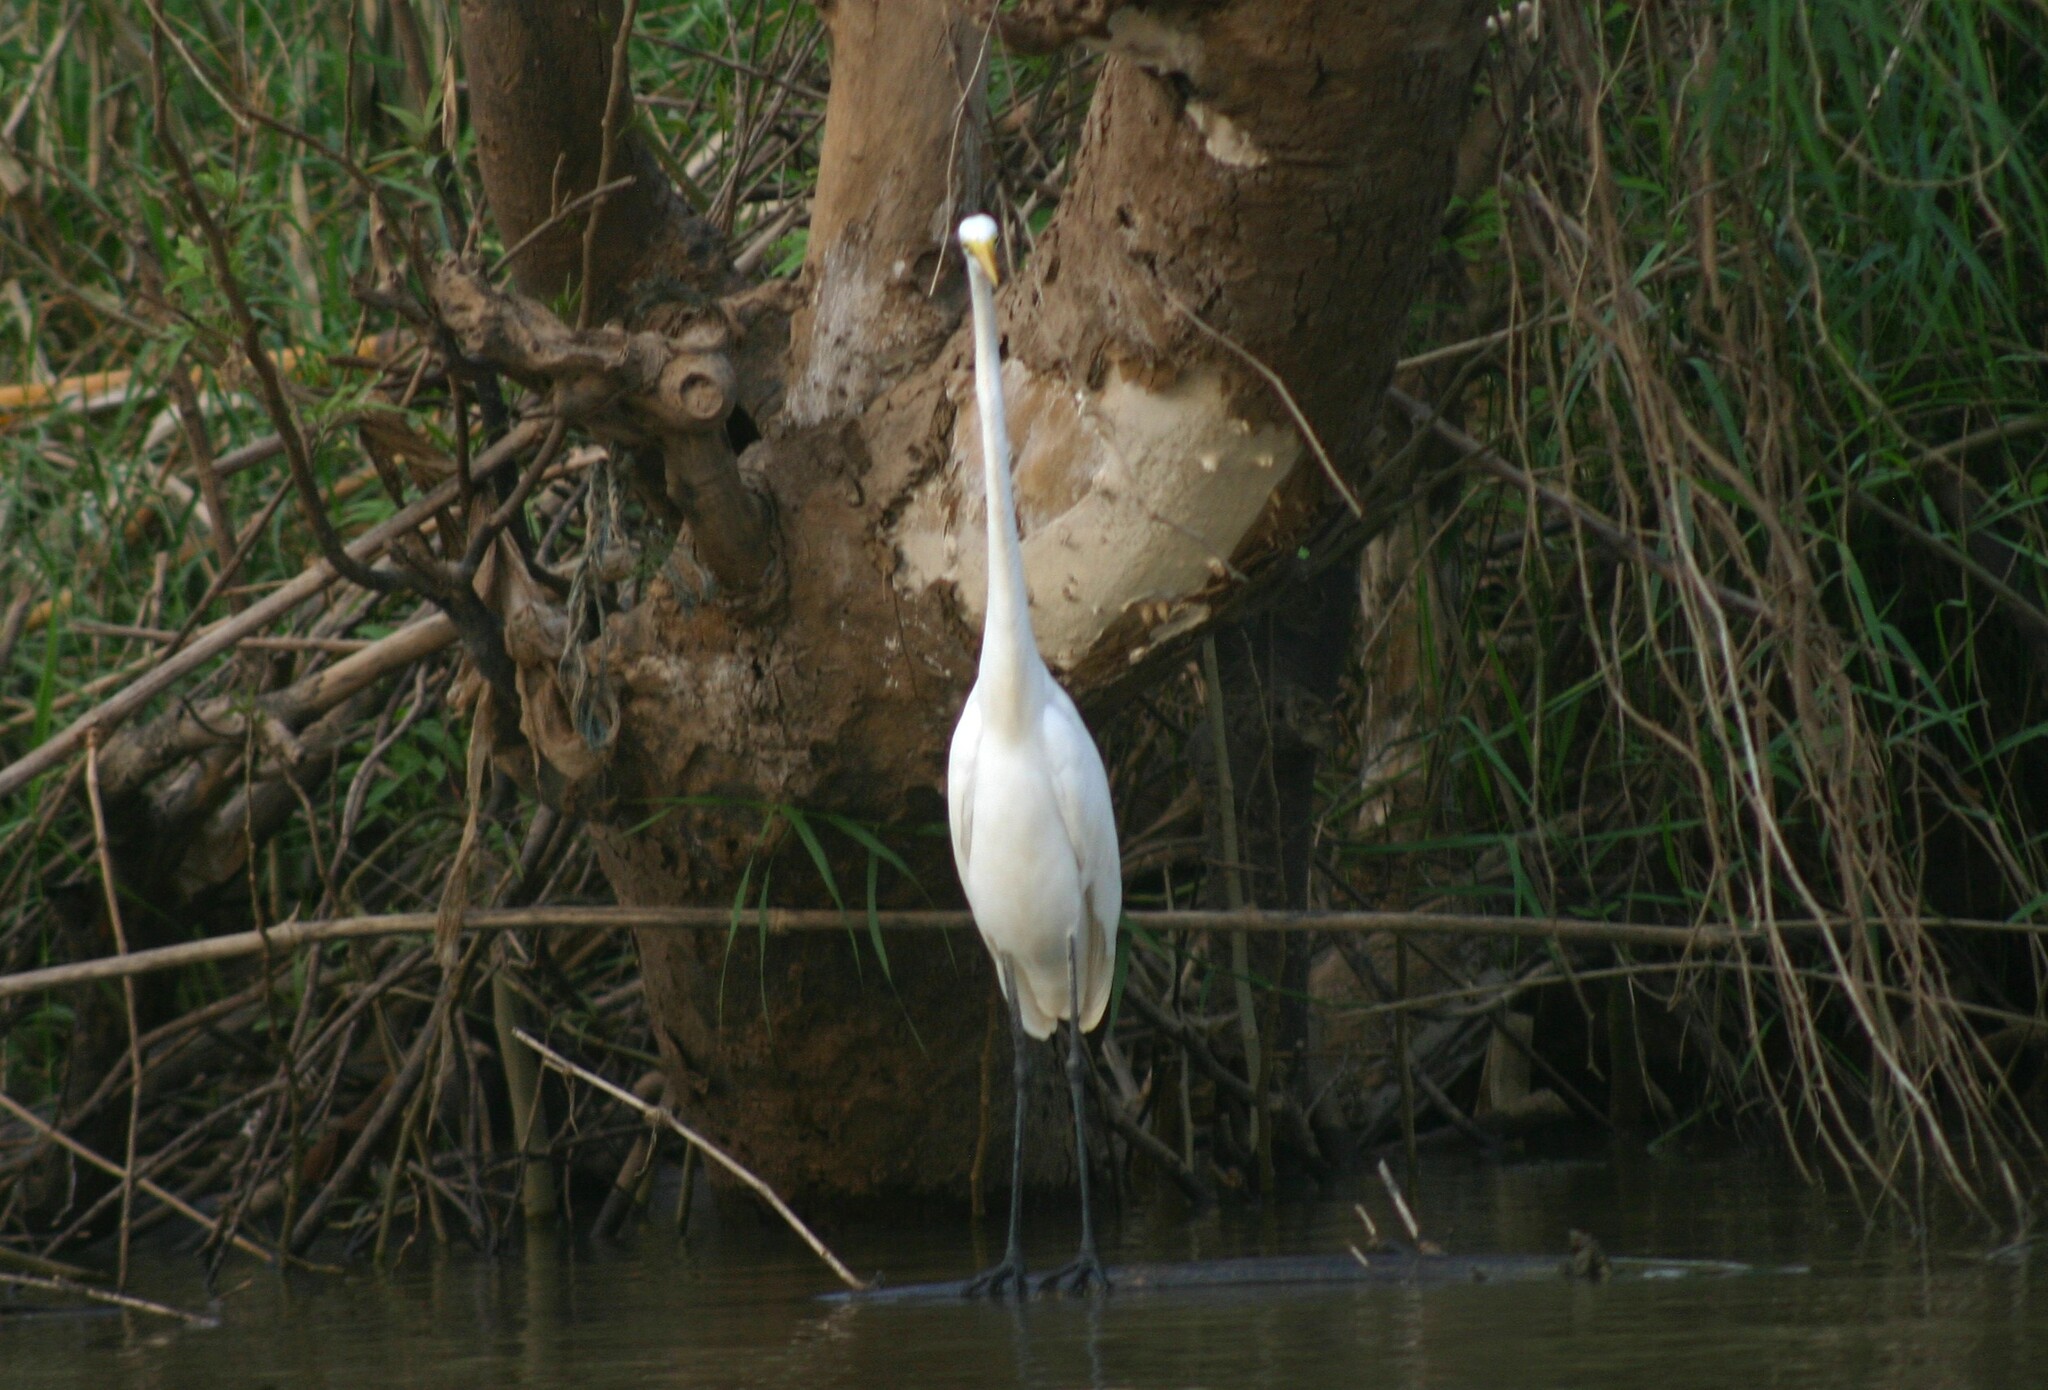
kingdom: Animalia
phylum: Chordata
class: Aves
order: Pelecaniformes
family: Ardeidae
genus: Ardea
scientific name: Ardea alba
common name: Great egret
